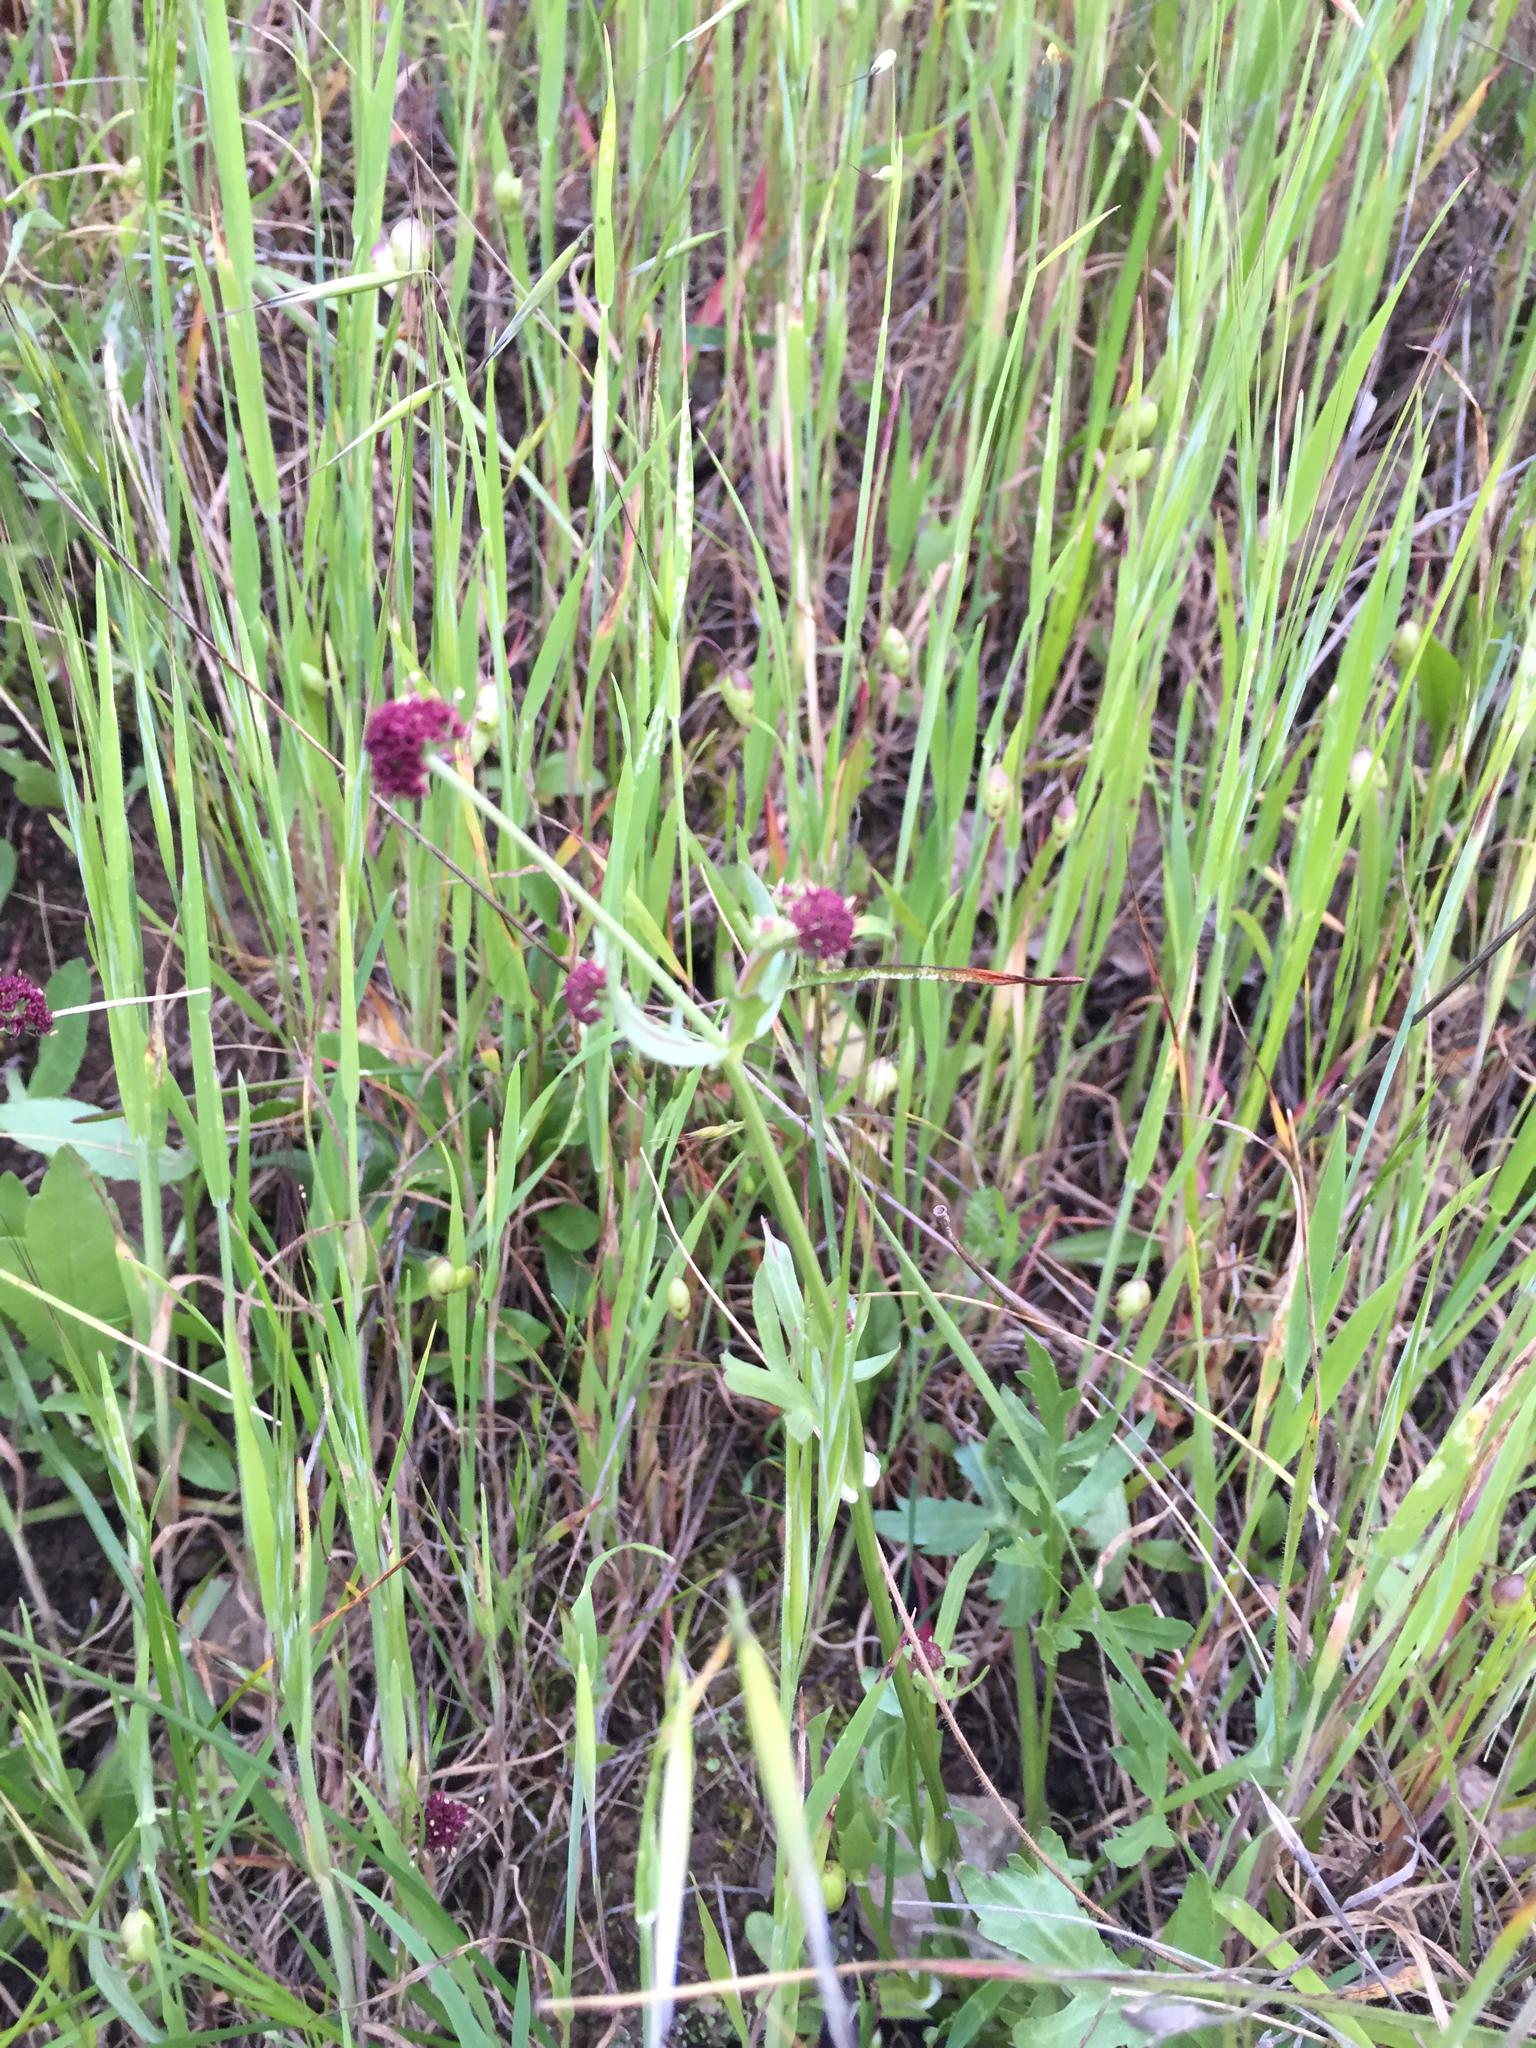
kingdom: Plantae
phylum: Tracheophyta
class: Magnoliopsida
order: Apiales
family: Apiaceae
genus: Sanicula
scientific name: Sanicula bipinnatifida
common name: Shoe-buttons
